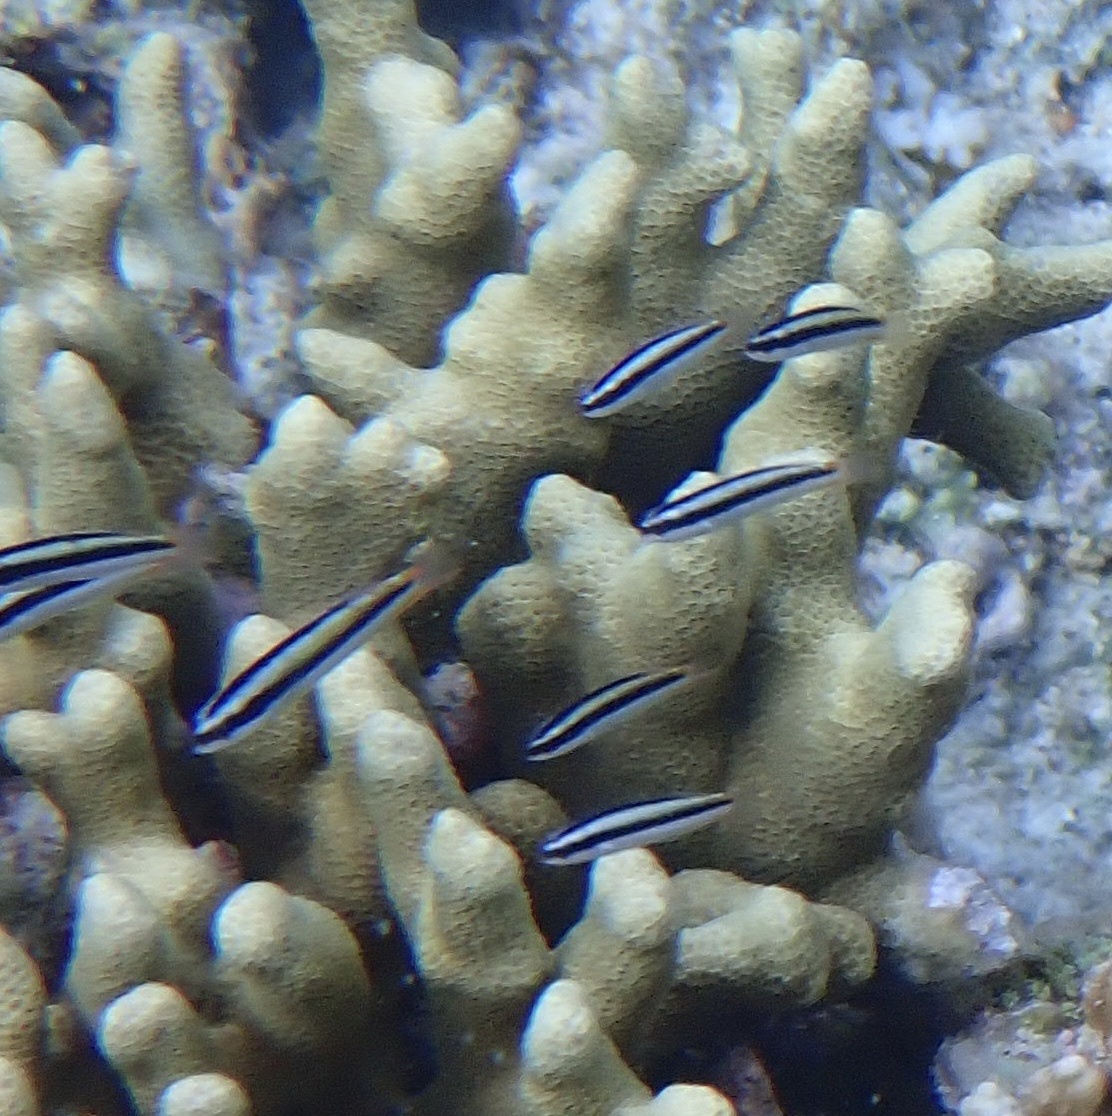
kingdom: Animalia
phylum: Chordata
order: Perciformes
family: Labridae
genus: Thalassoma
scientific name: Thalassoma amblycephalum
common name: Bluehead wrasse
